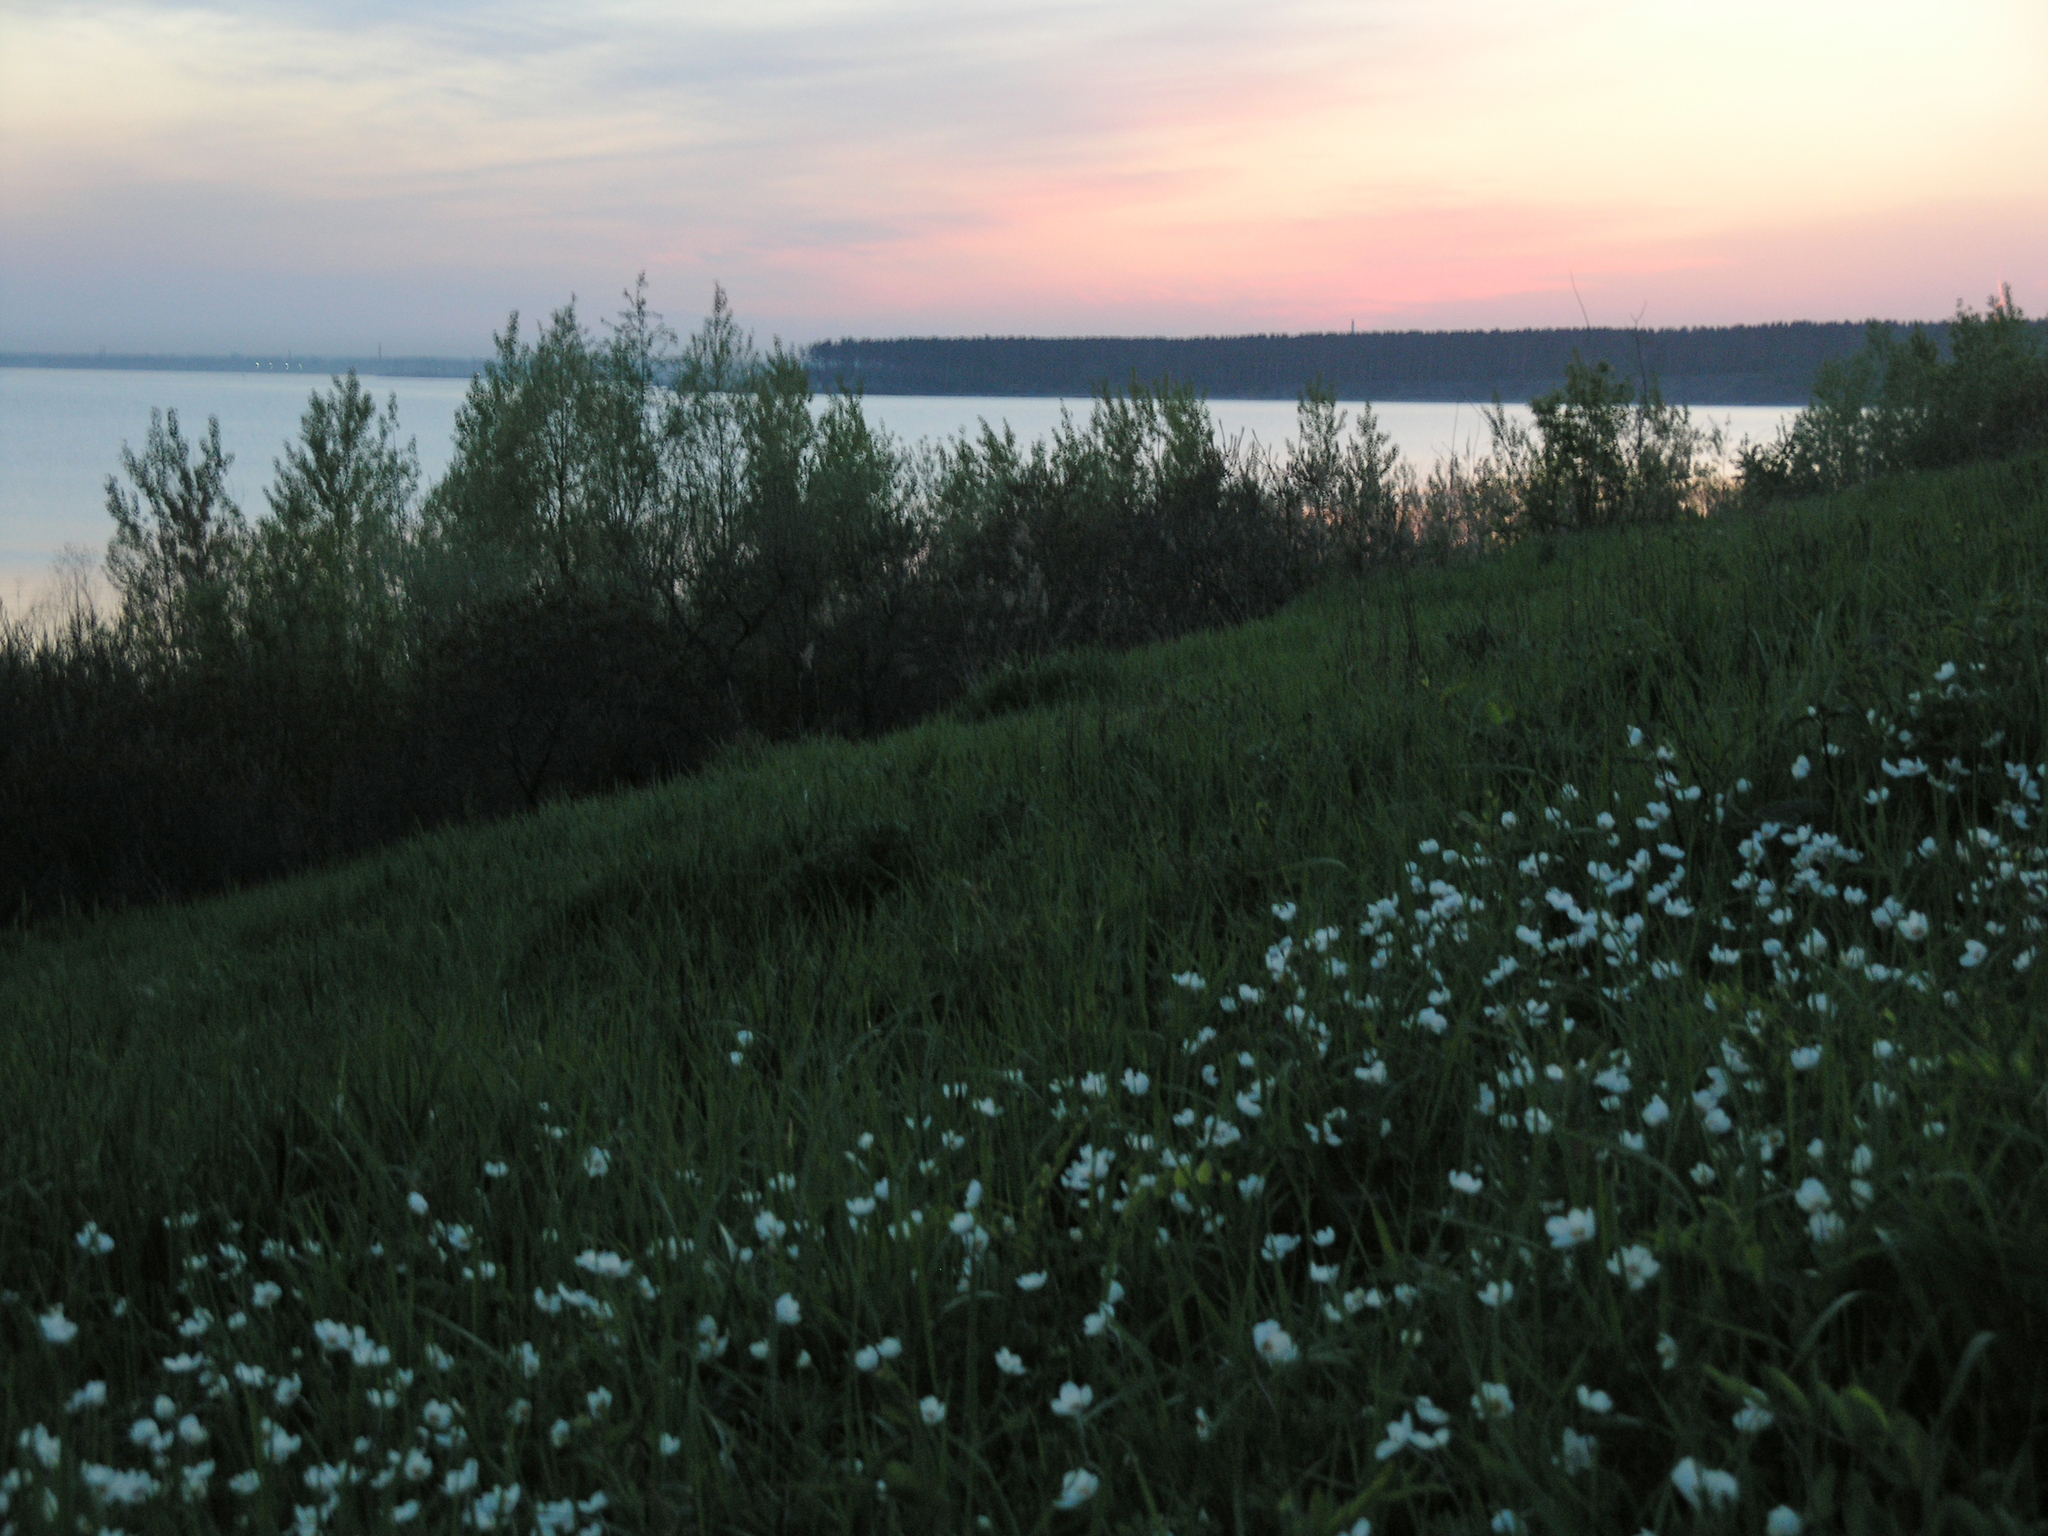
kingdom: Plantae
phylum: Tracheophyta
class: Magnoliopsida
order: Ranunculales
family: Ranunculaceae
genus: Anemone
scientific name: Anemone sylvestris
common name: Snowdrop anemone
